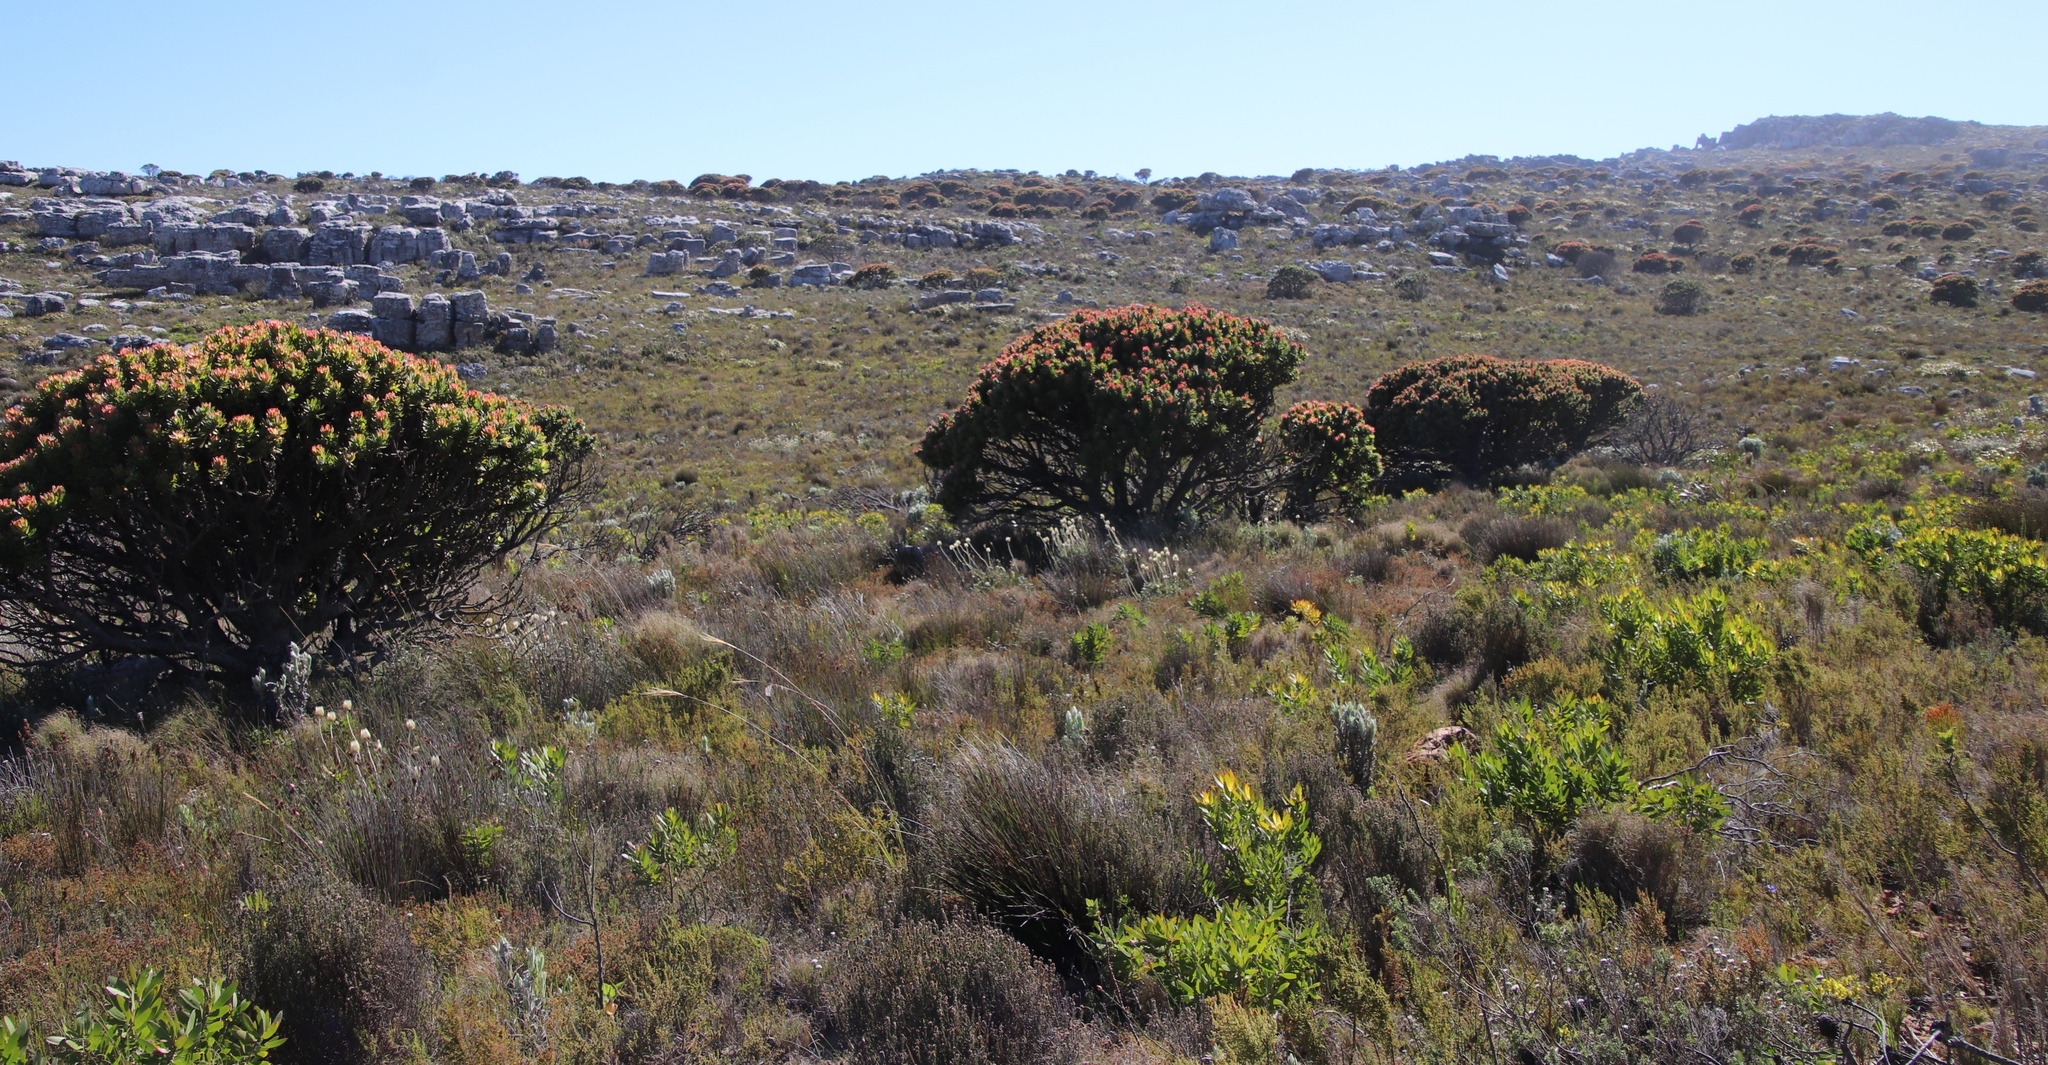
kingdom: Plantae
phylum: Tracheophyta
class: Magnoliopsida
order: Proteales
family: Proteaceae
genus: Mimetes
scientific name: Mimetes fimbriifolius
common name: Fringed bottlebrush
